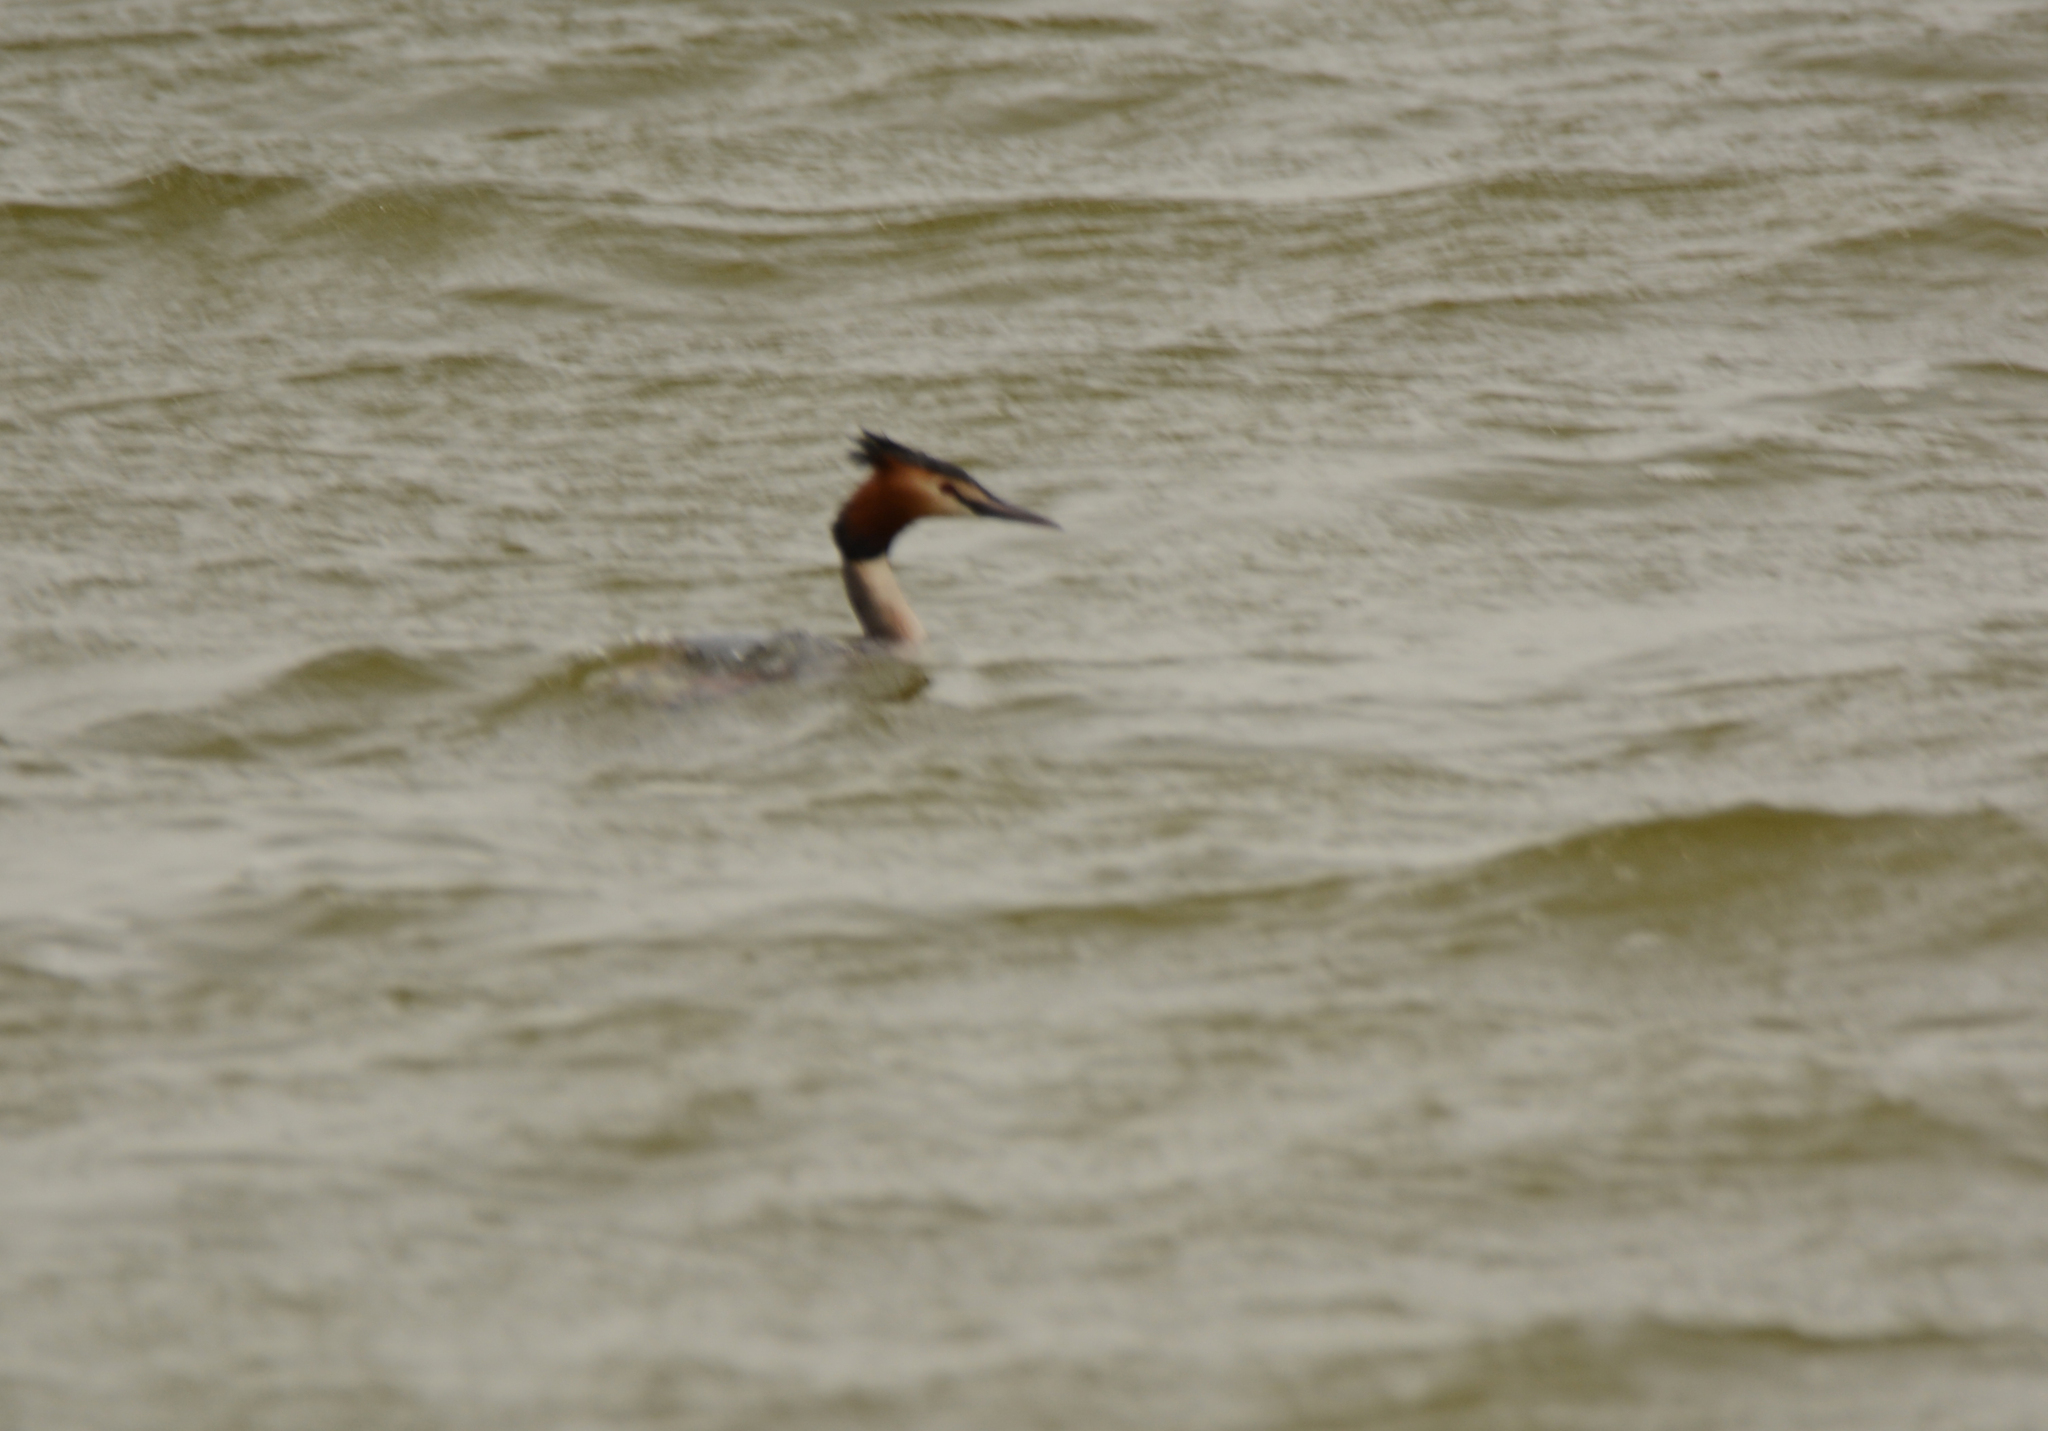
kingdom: Animalia
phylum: Chordata
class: Aves
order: Podicipediformes
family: Podicipedidae
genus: Podiceps
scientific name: Podiceps cristatus
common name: Great crested grebe
